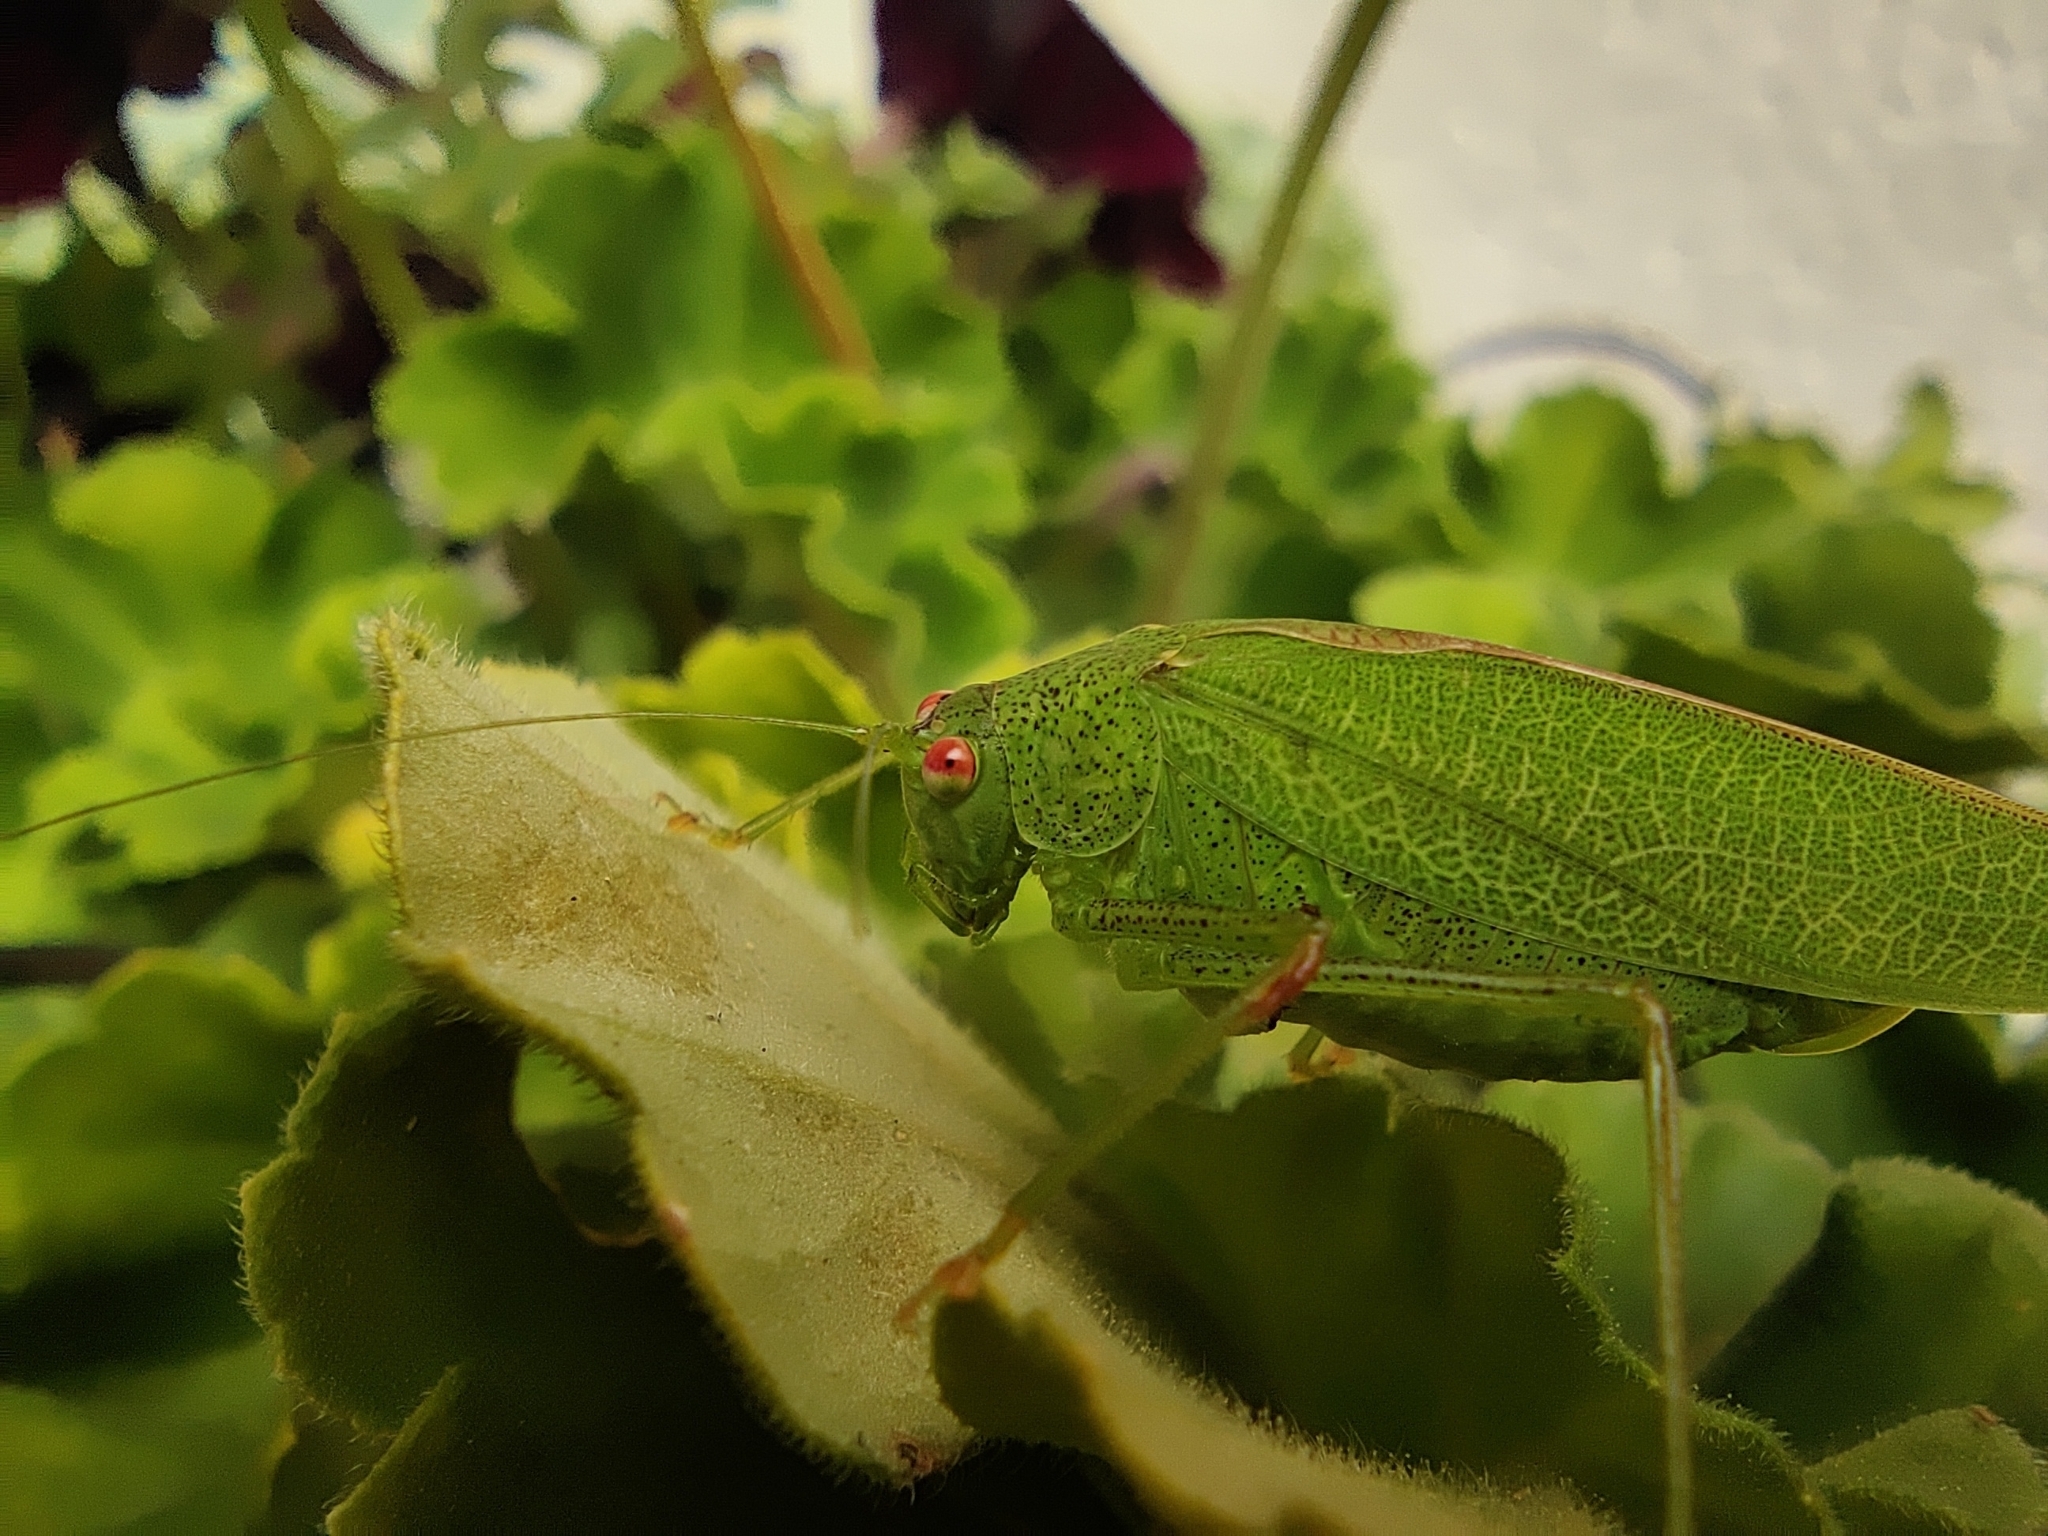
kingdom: Animalia
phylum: Arthropoda
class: Insecta
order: Orthoptera
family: Tettigoniidae
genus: Phaneroptera
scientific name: Phaneroptera nana
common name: Southern sickle bush-cricket
